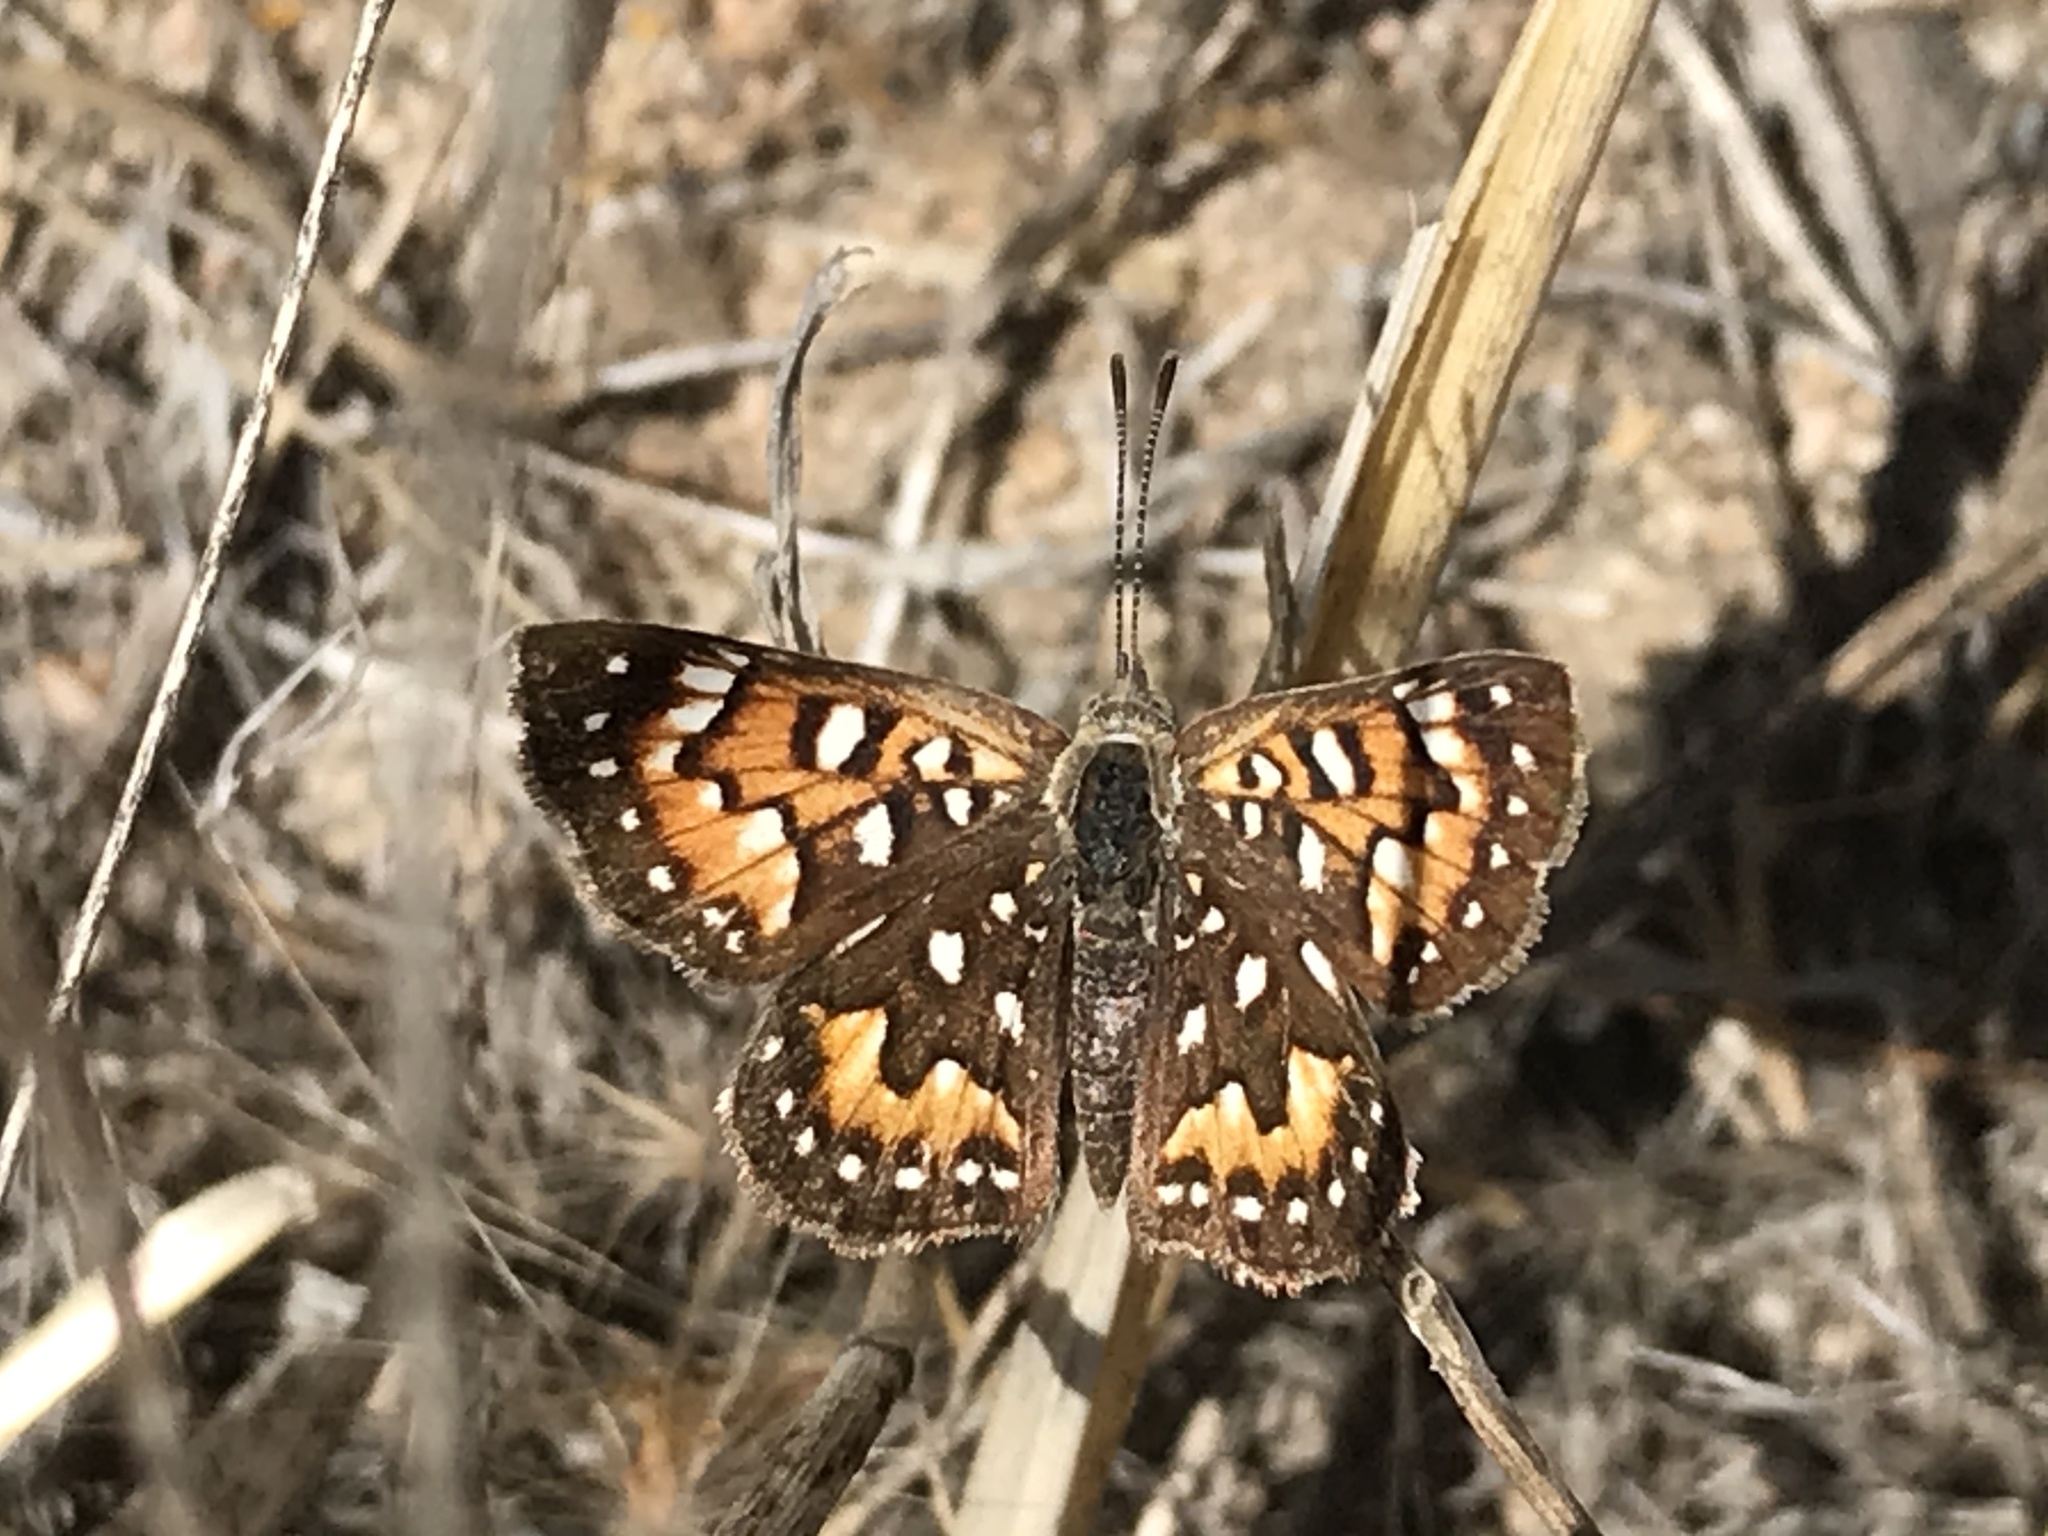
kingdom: Animalia
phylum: Arthropoda
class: Insecta
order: Lepidoptera
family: Riodinidae
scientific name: Riodinidae
